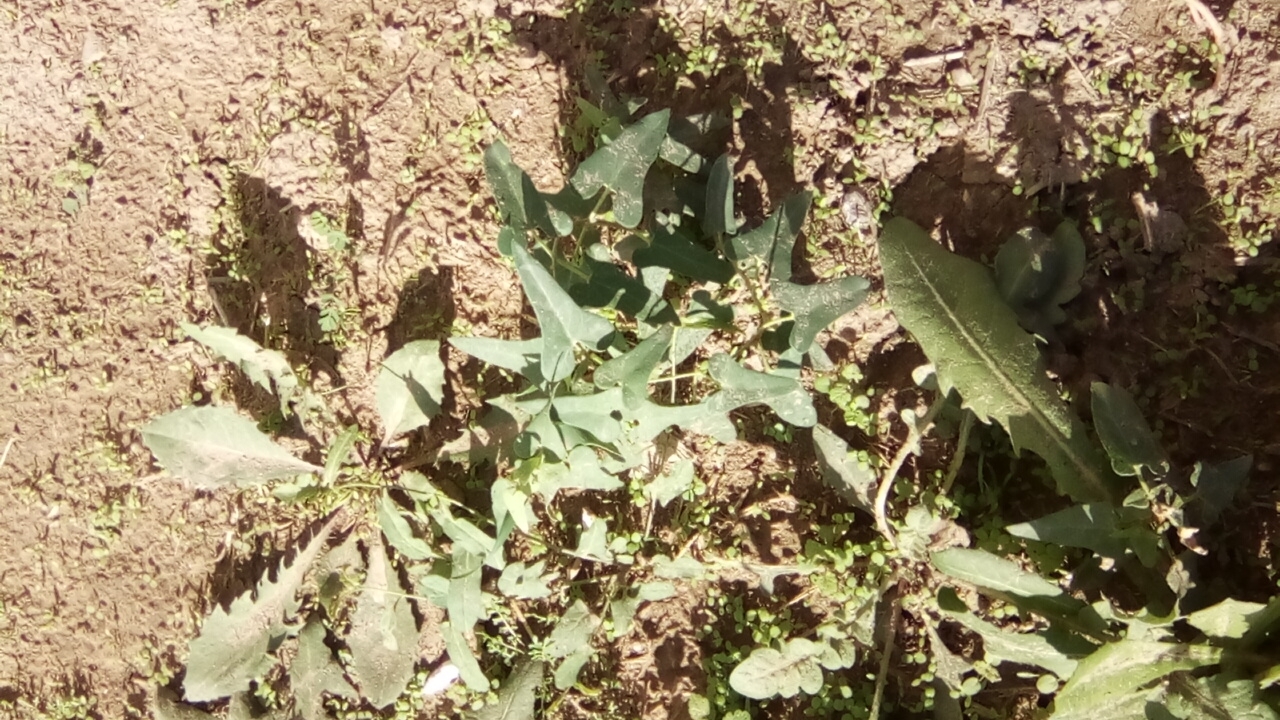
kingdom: Plantae
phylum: Tracheophyta
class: Magnoliopsida
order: Gentianales
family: Apocynaceae
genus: Cynanchum
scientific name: Cynanchum acutum
